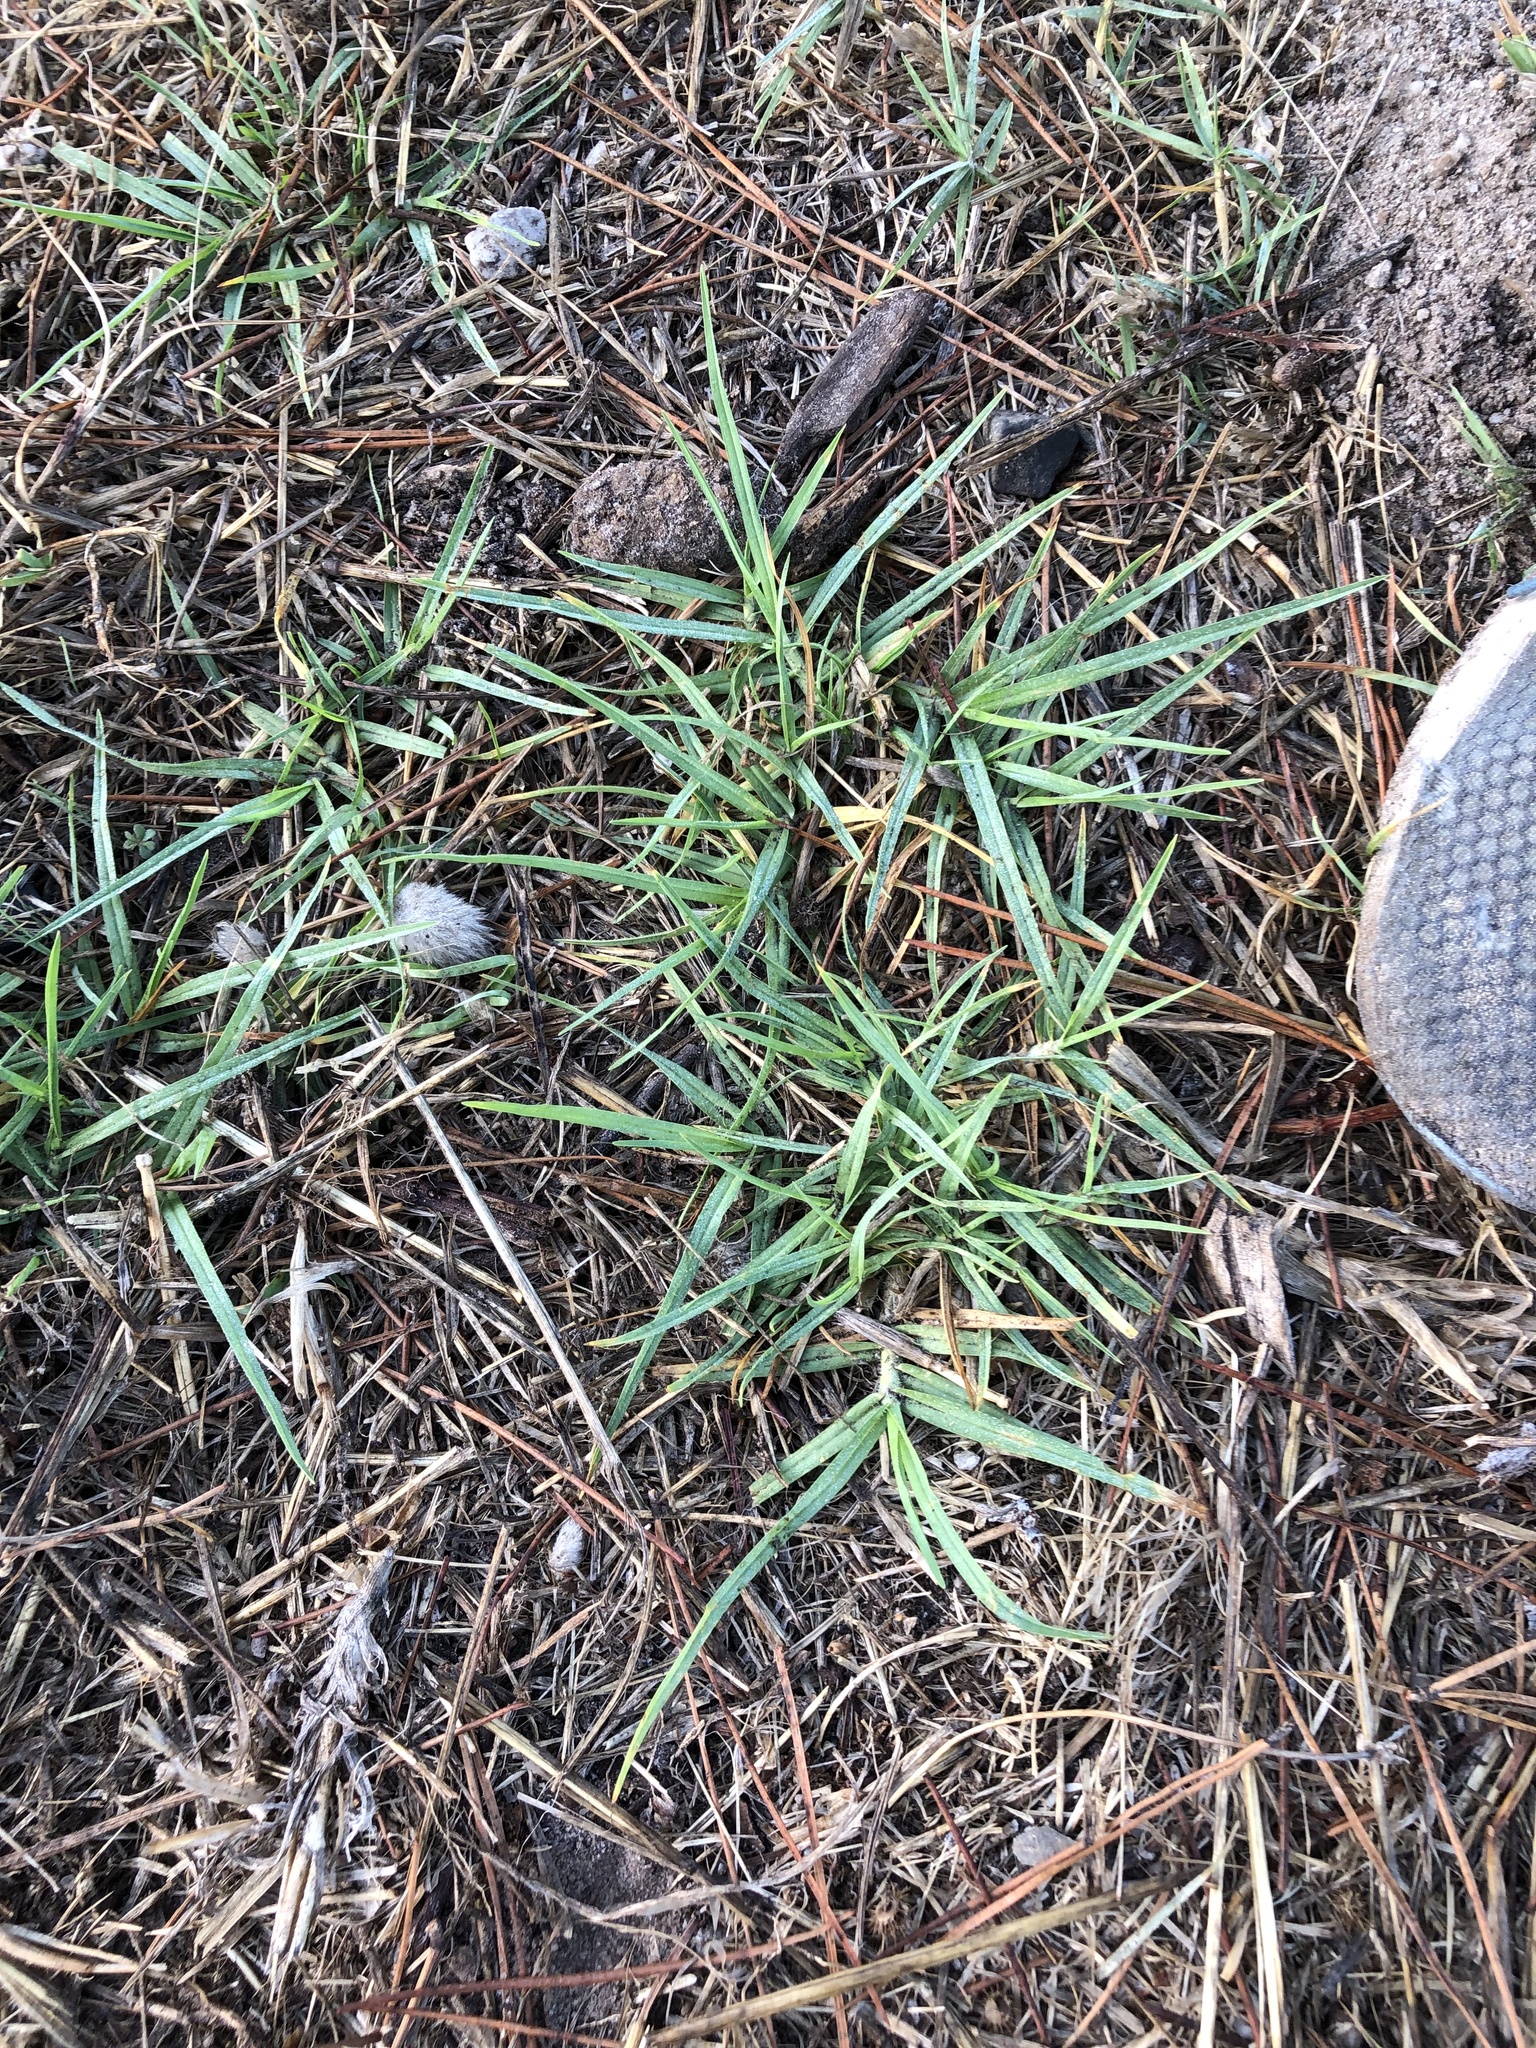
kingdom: Plantae
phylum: Tracheophyta
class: Liliopsida
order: Poales
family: Poaceae
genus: Cenchrus
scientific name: Cenchrus clandestinus
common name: Kikuyugrass
